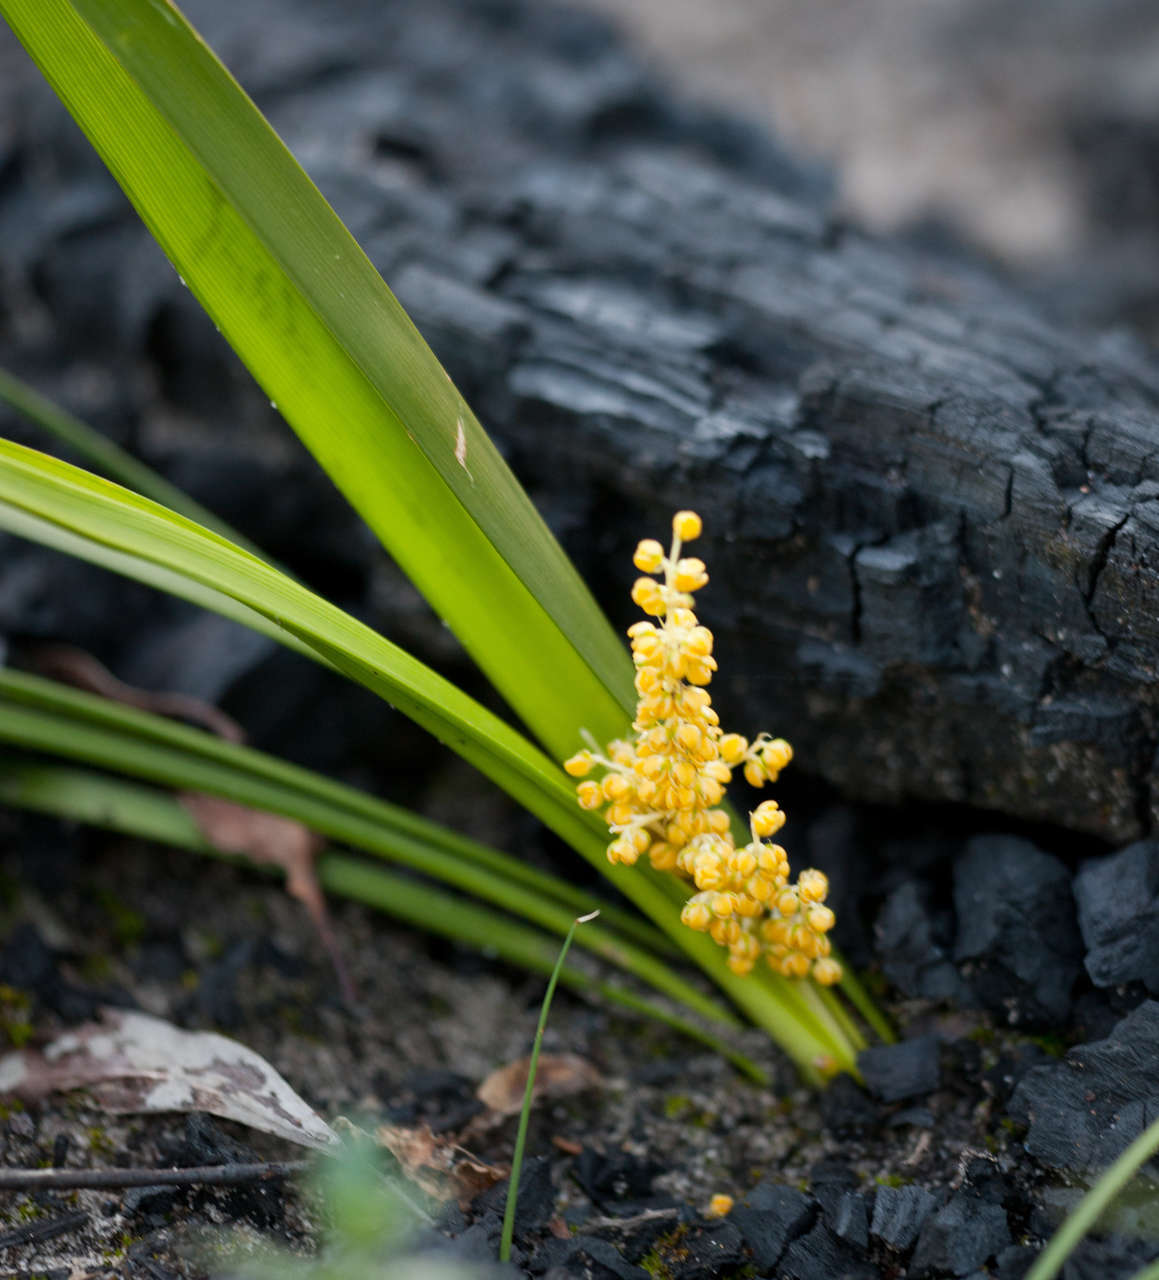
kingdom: Plantae
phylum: Tracheophyta
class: Liliopsida
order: Asparagales
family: Asparagaceae
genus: Lomandra
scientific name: Lomandra filiformis
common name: Wattle mat-rush
